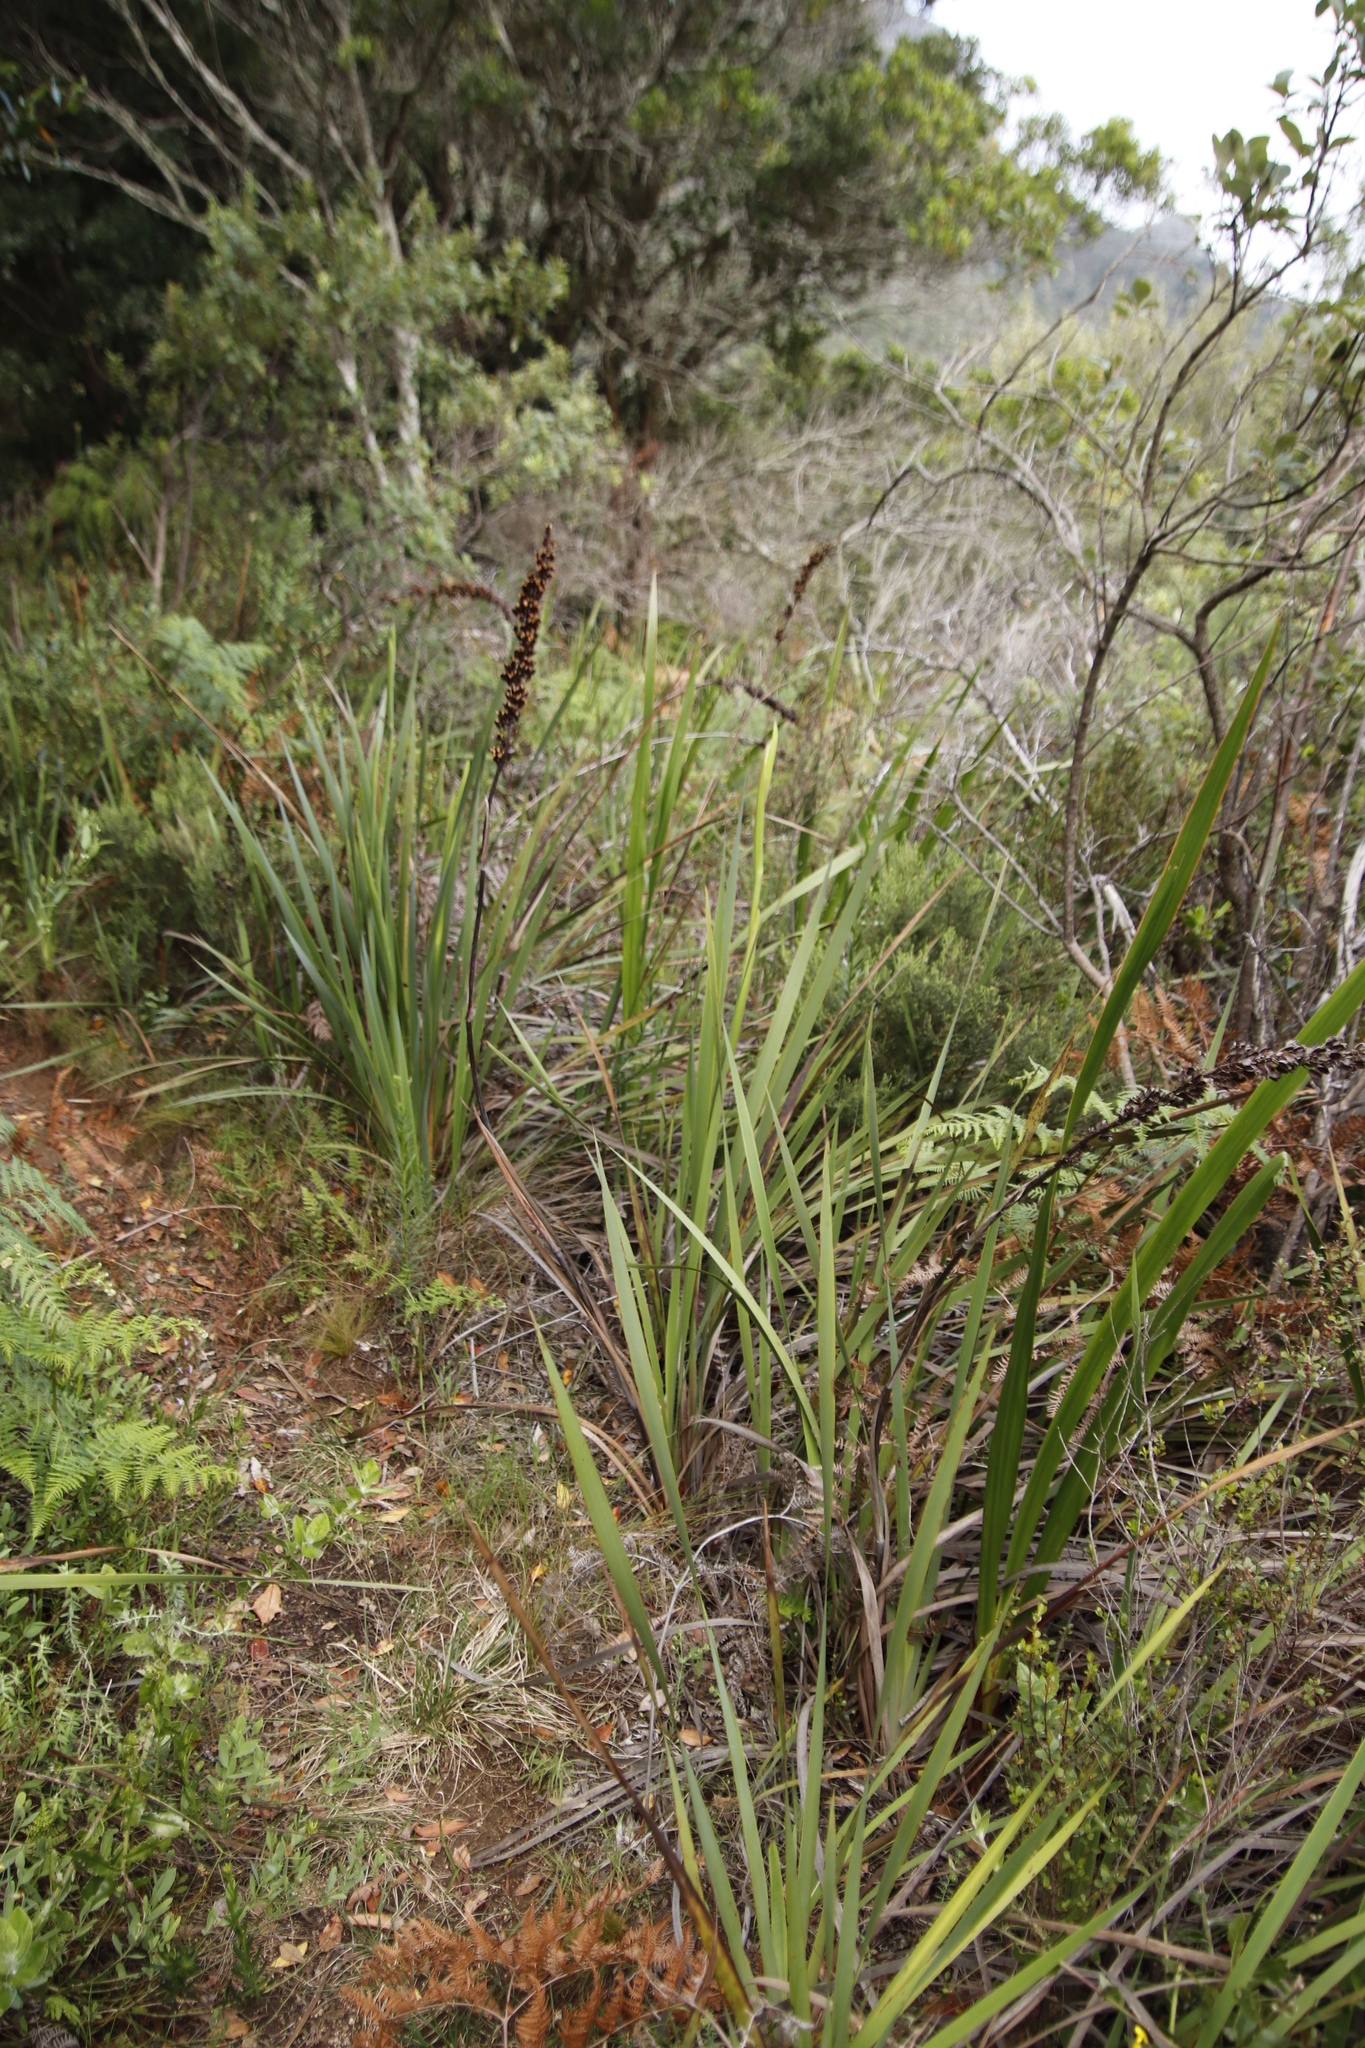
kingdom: Plantae
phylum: Tracheophyta
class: Liliopsida
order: Asparagales
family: Iridaceae
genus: Aristea
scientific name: Aristea capitata
